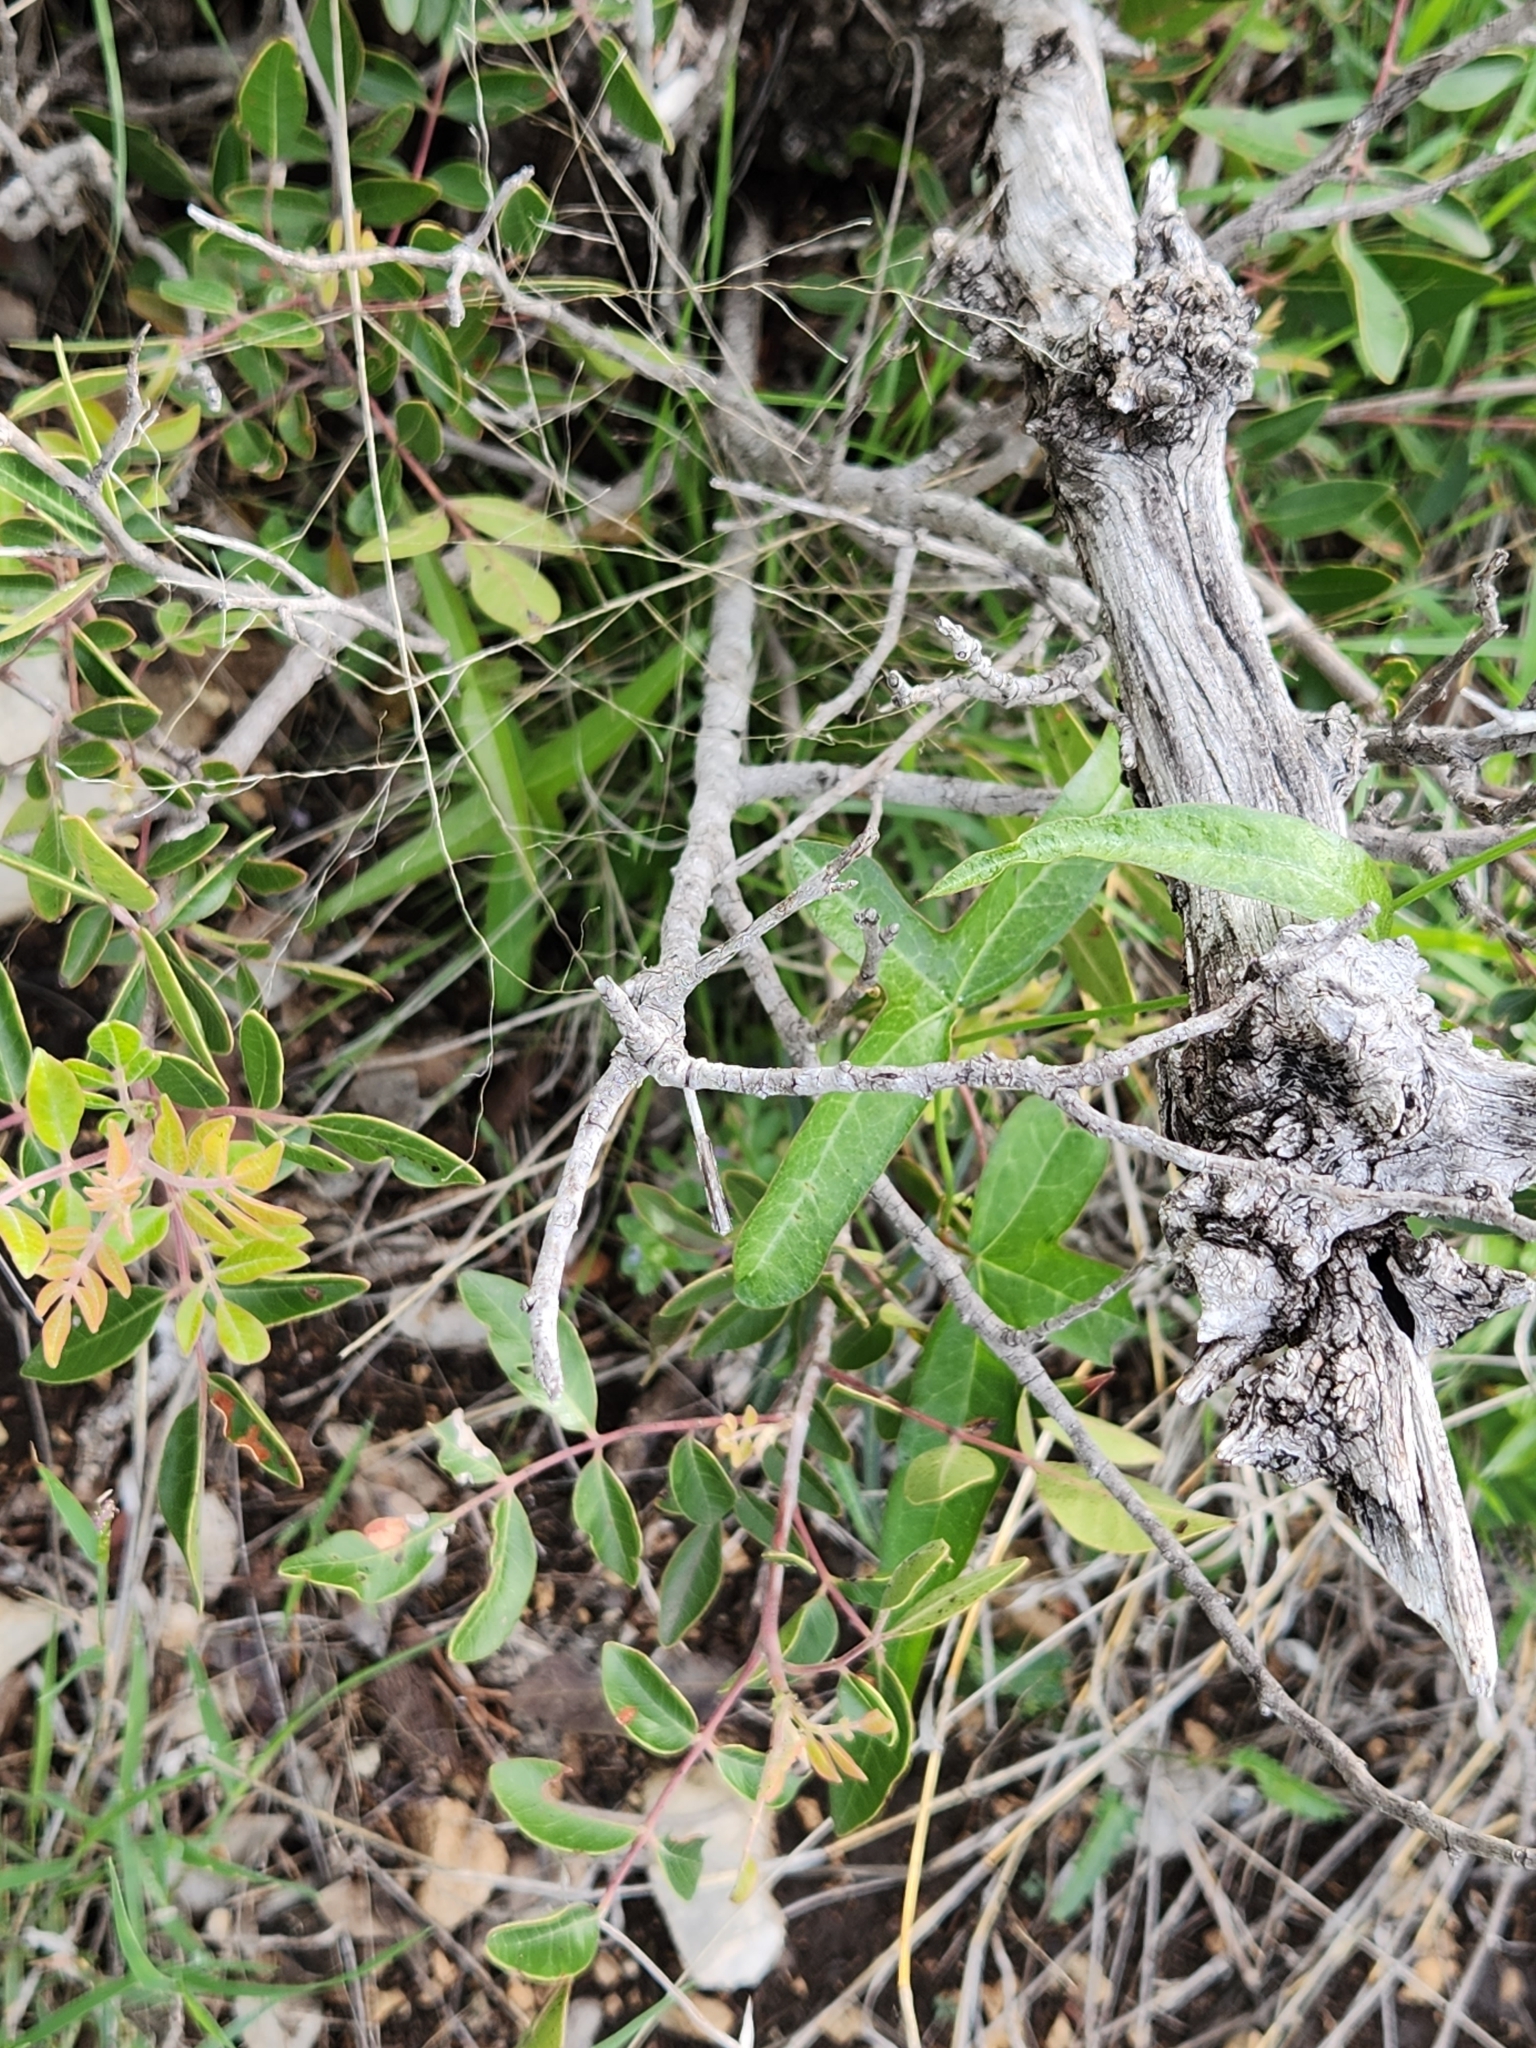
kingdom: Plantae
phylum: Tracheophyta
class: Magnoliopsida
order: Malpighiales
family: Passifloraceae
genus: Passiflora
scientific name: Passiflora tenuiloba
